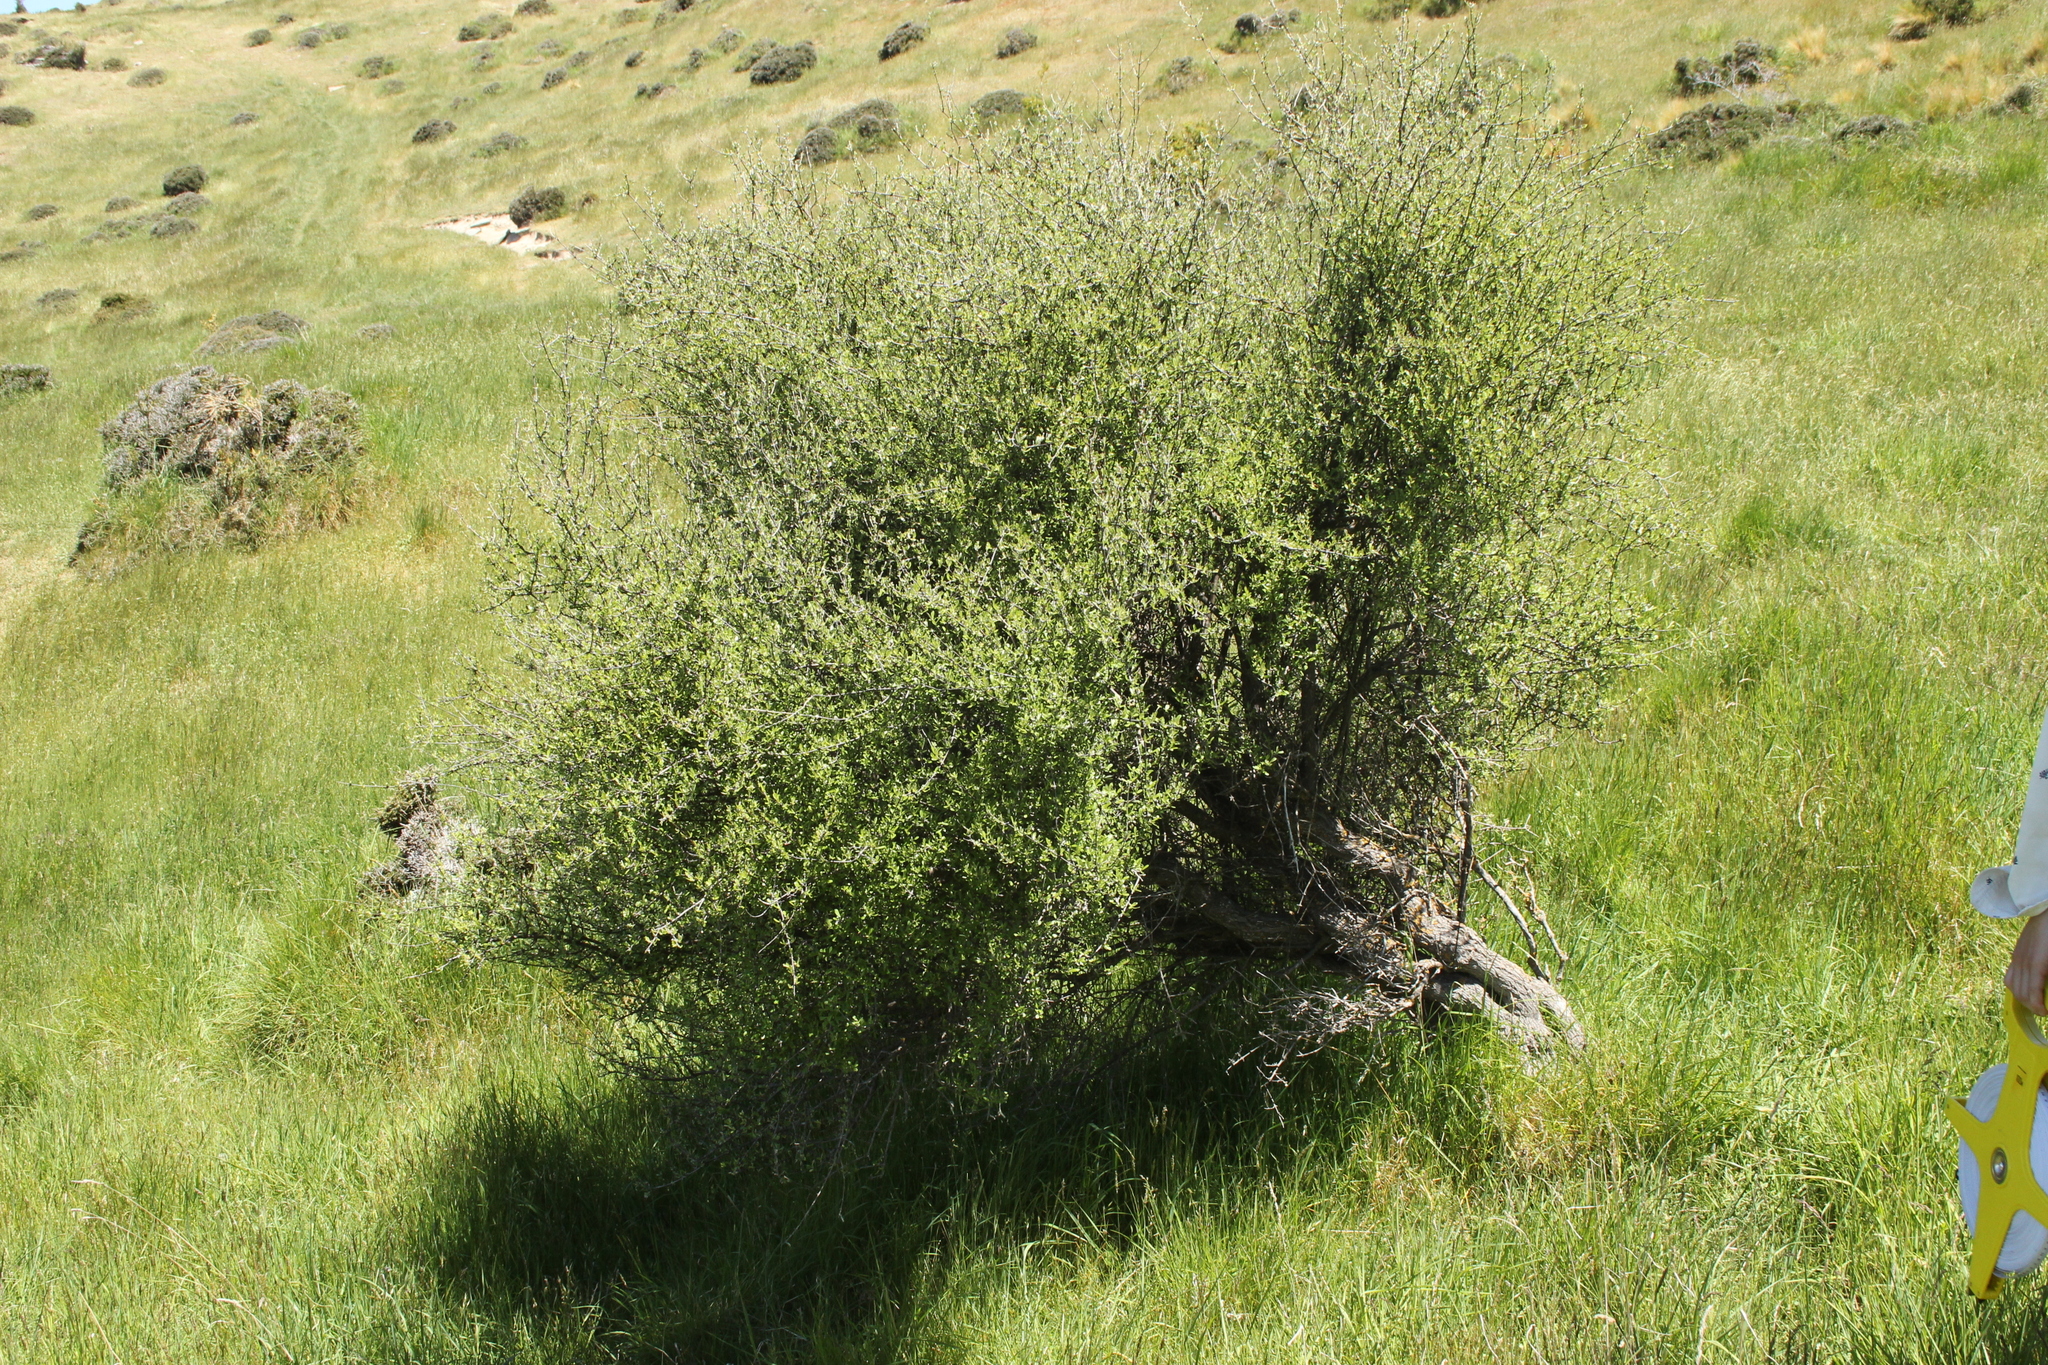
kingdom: Plantae
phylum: Tracheophyta
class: Magnoliopsida
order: Asterales
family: Asteraceae
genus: Olearia
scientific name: Olearia odorata
